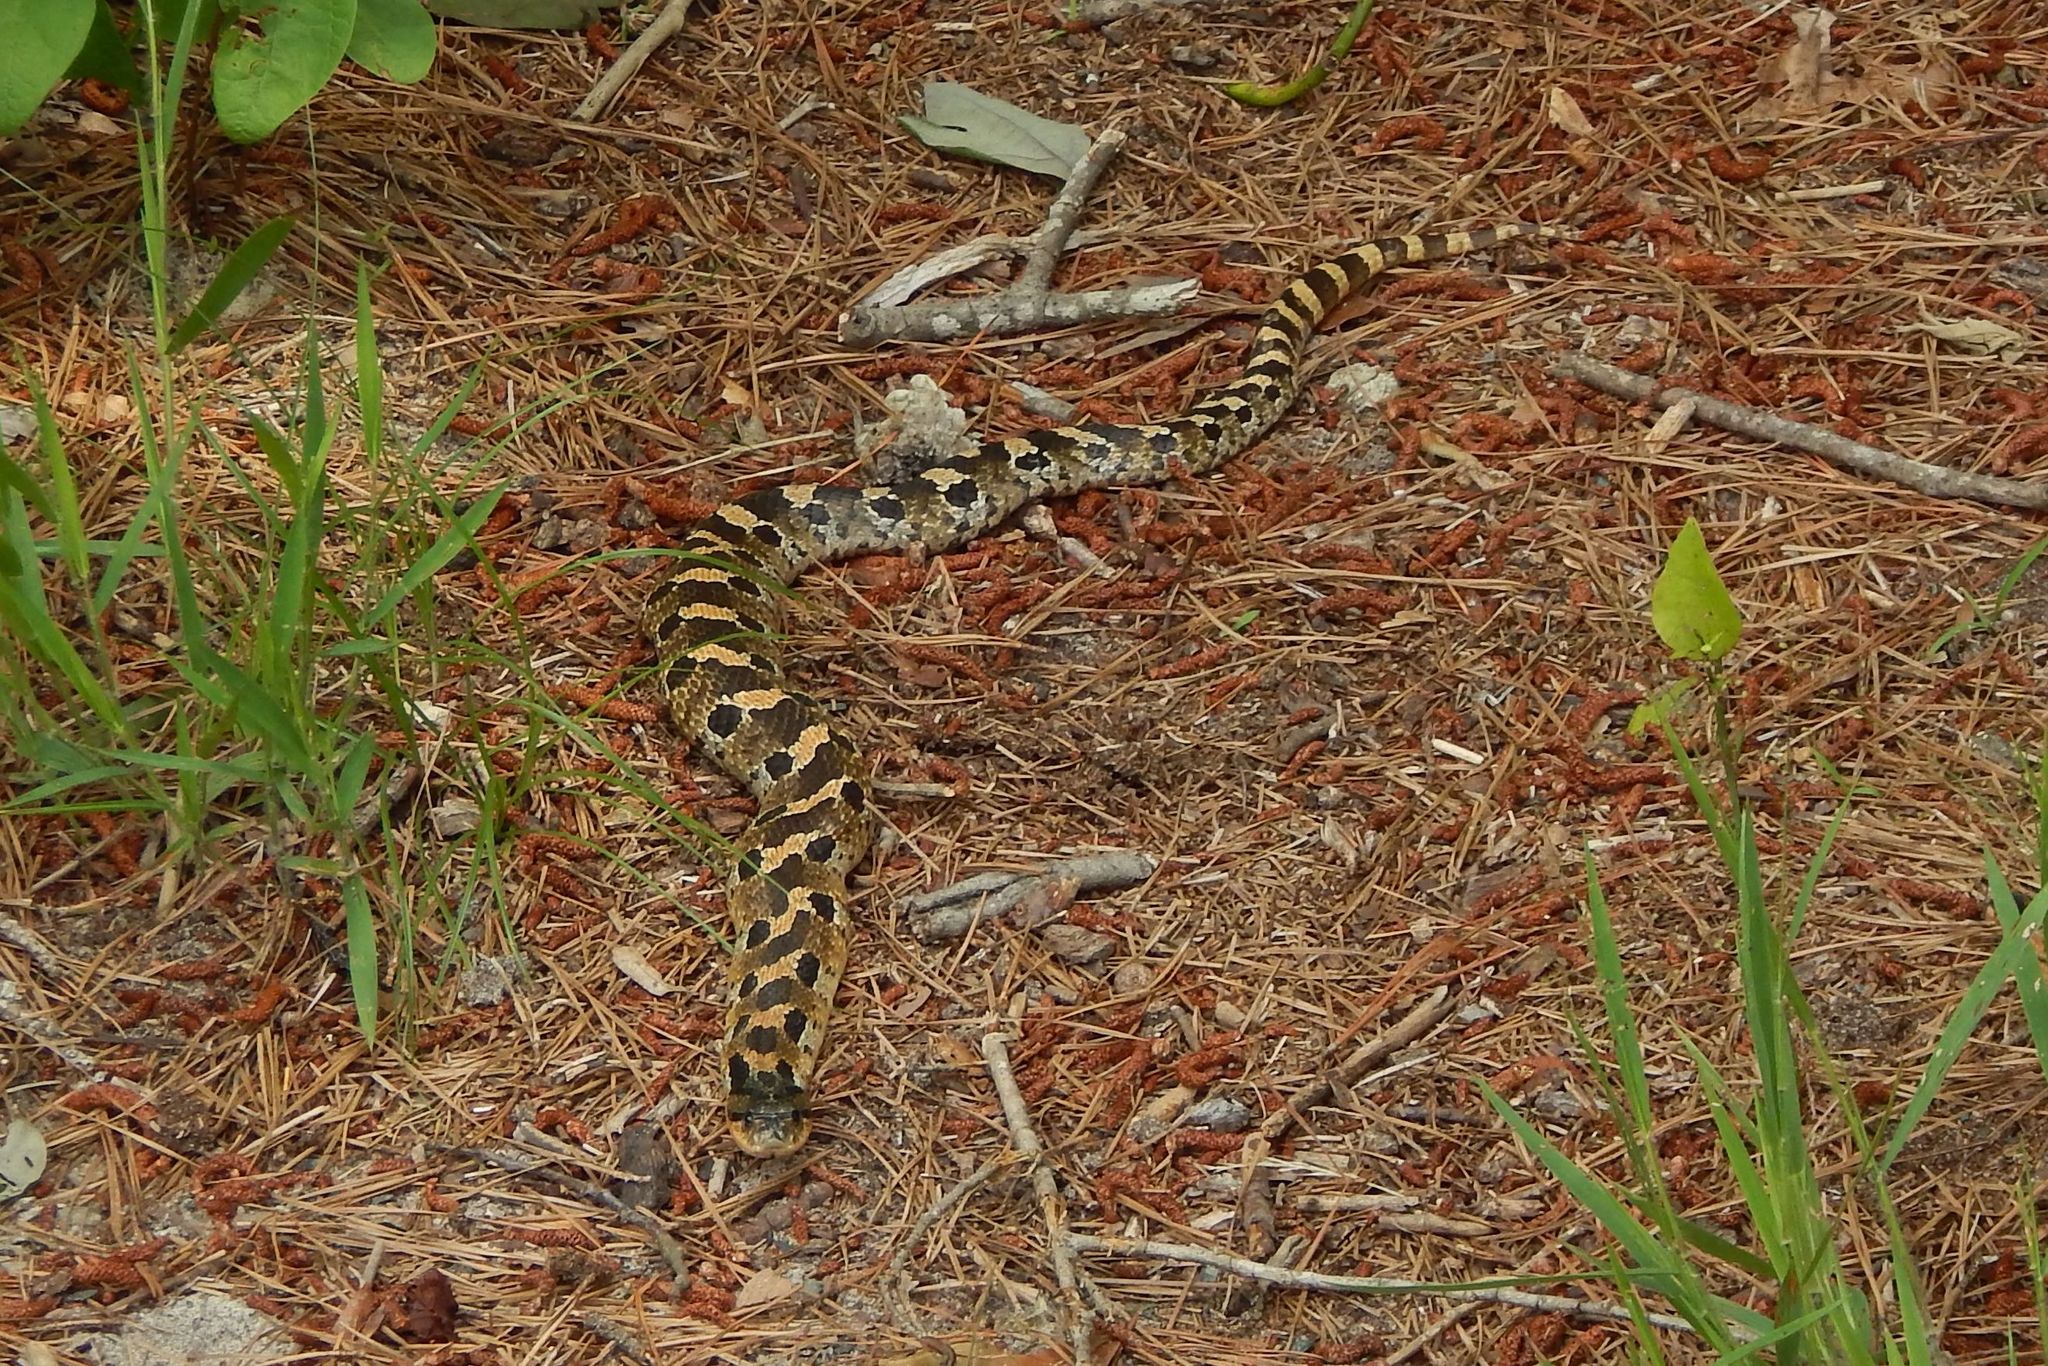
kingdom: Animalia
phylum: Chordata
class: Squamata
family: Colubridae
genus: Heterodon
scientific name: Heterodon platirhinos
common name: Eastern hognose snake
